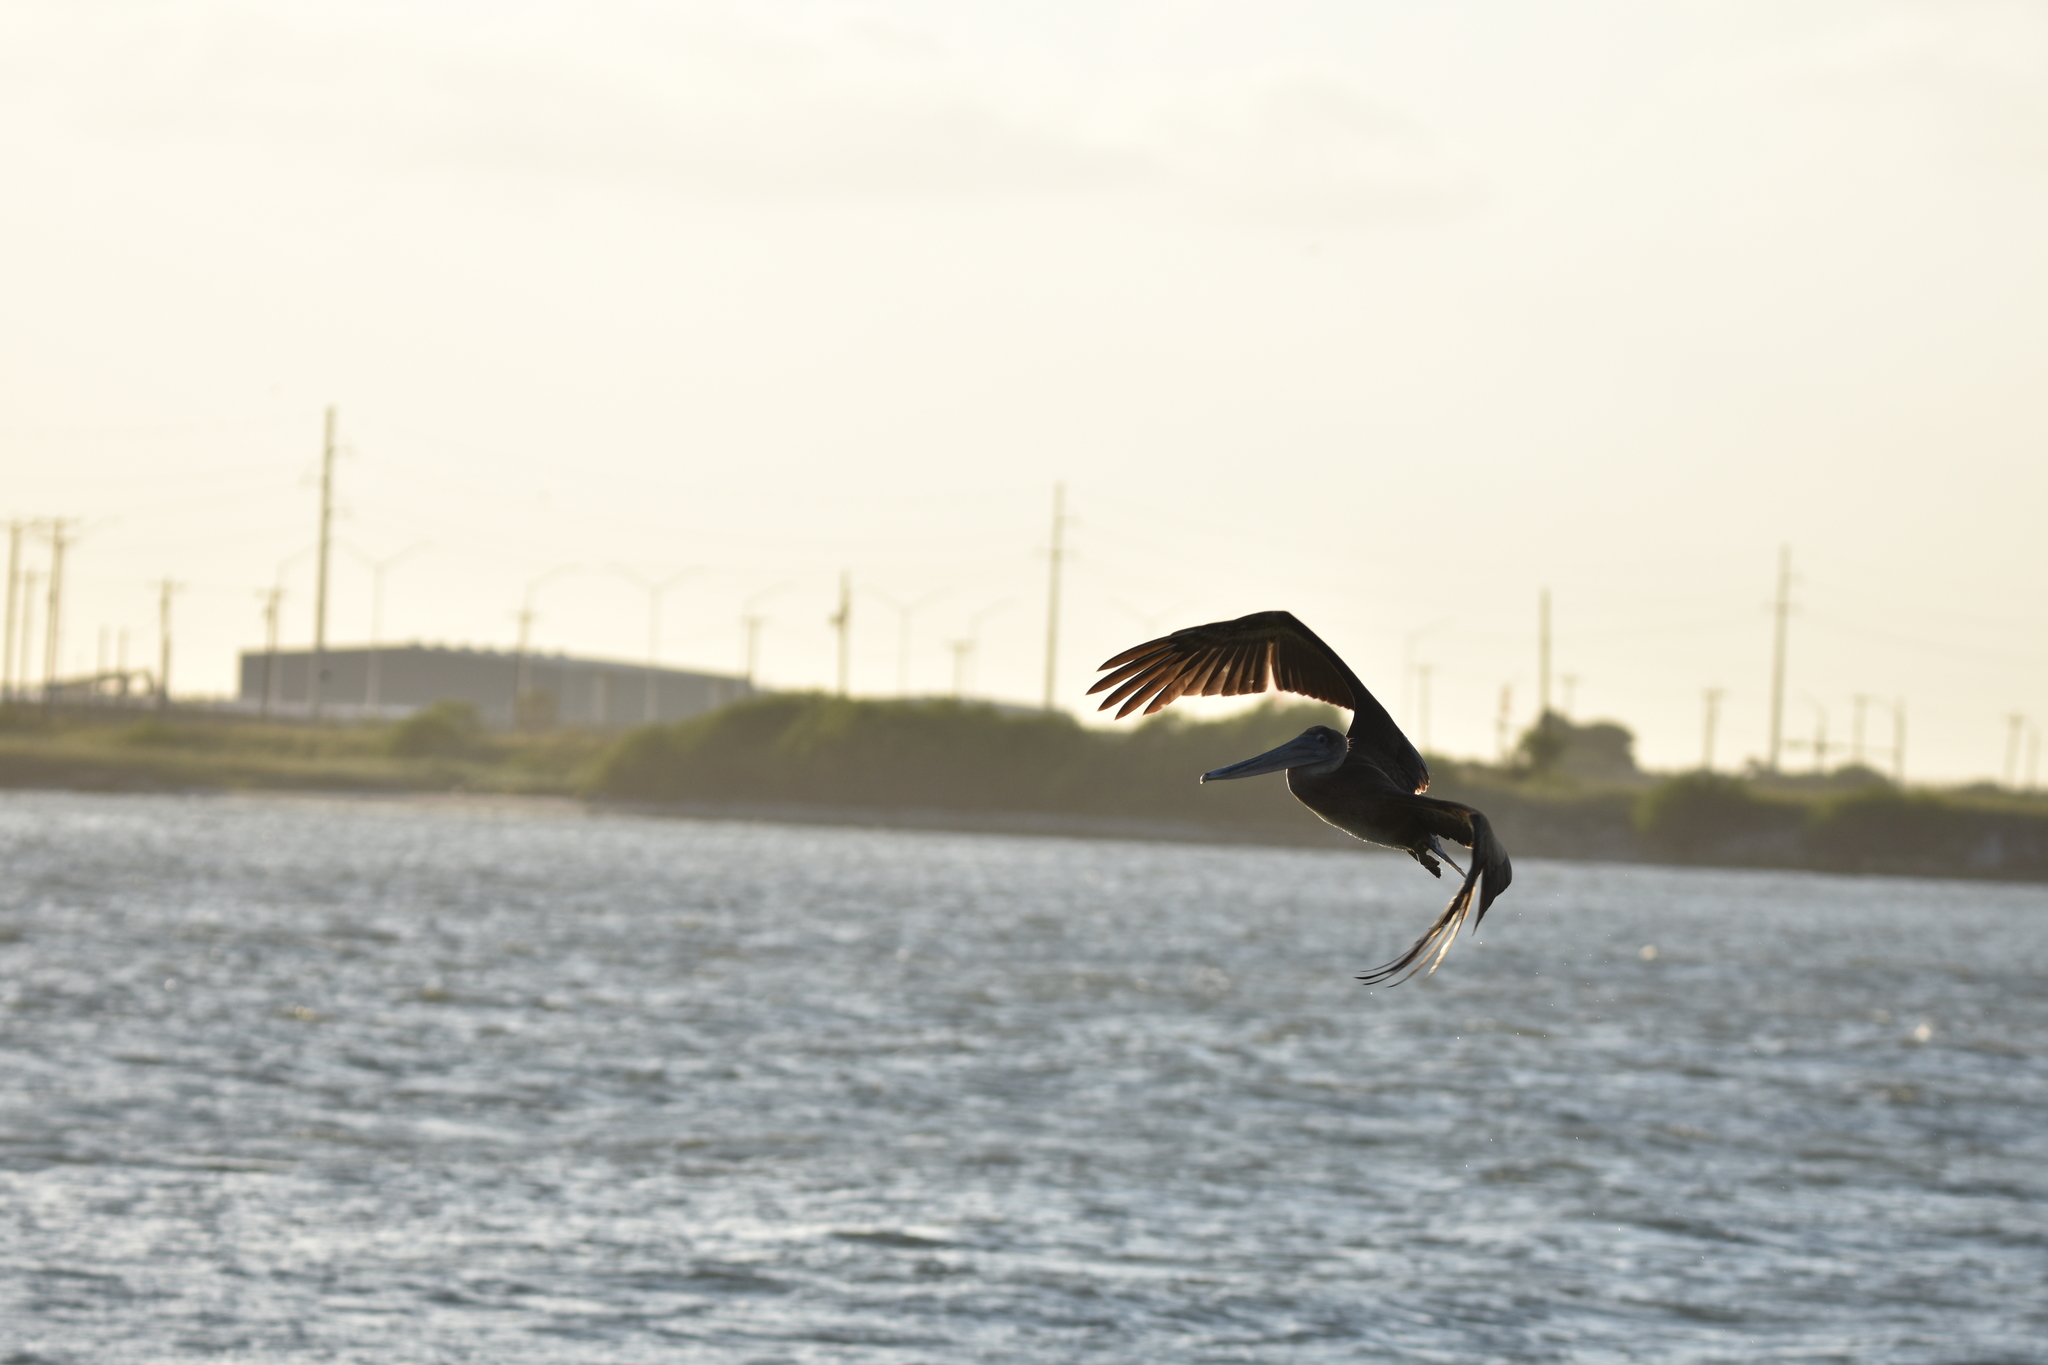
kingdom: Animalia
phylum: Chordata
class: Aves
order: Pelecaniformes
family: Pelecanidae
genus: Pelecanus
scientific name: Pelecanus occidentalis
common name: Brown pelican
